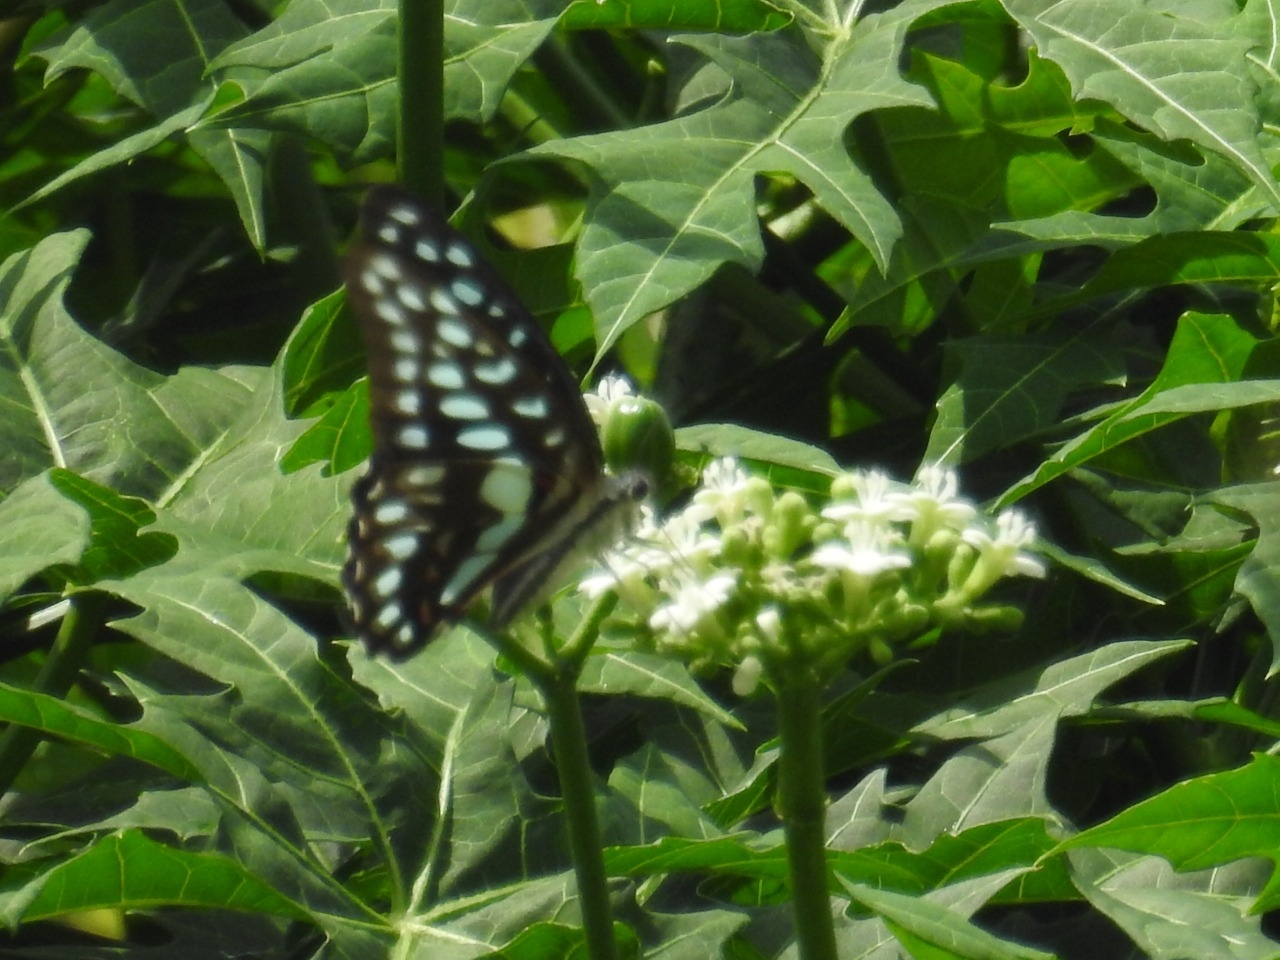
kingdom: Animalia
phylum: Arthropoda
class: Insecta
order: Lepidoptera
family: Papilionidae
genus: Graphium
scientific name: Graphium
